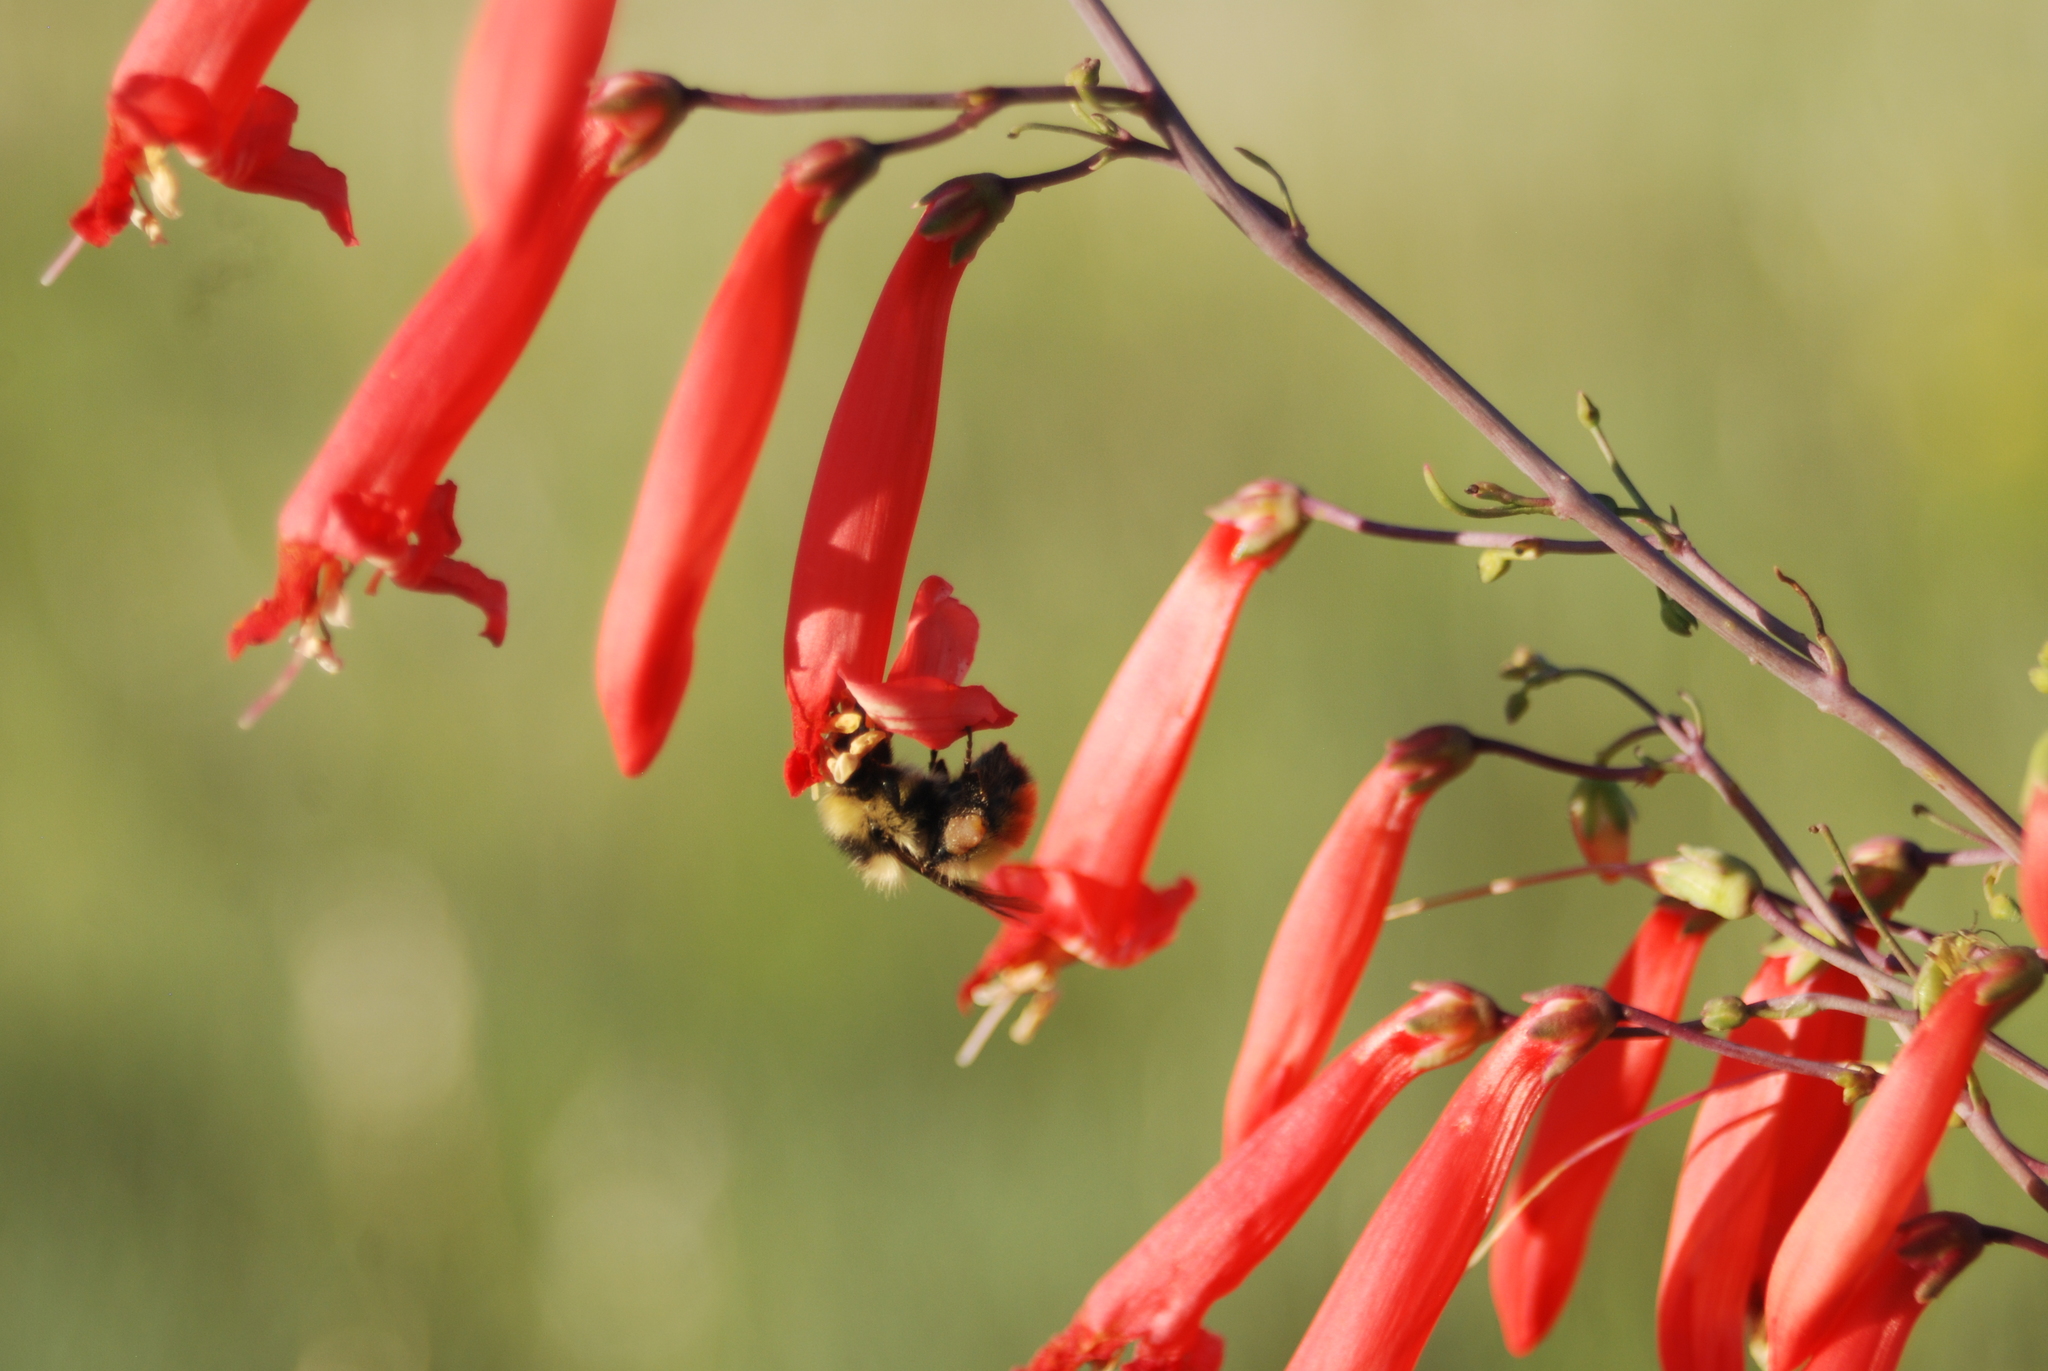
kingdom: Plantae
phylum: Tracheophyta
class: Magnoliopsida
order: Lamiales
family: Plantaginaceae
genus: Penstemon
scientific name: Penstemon barbatus
